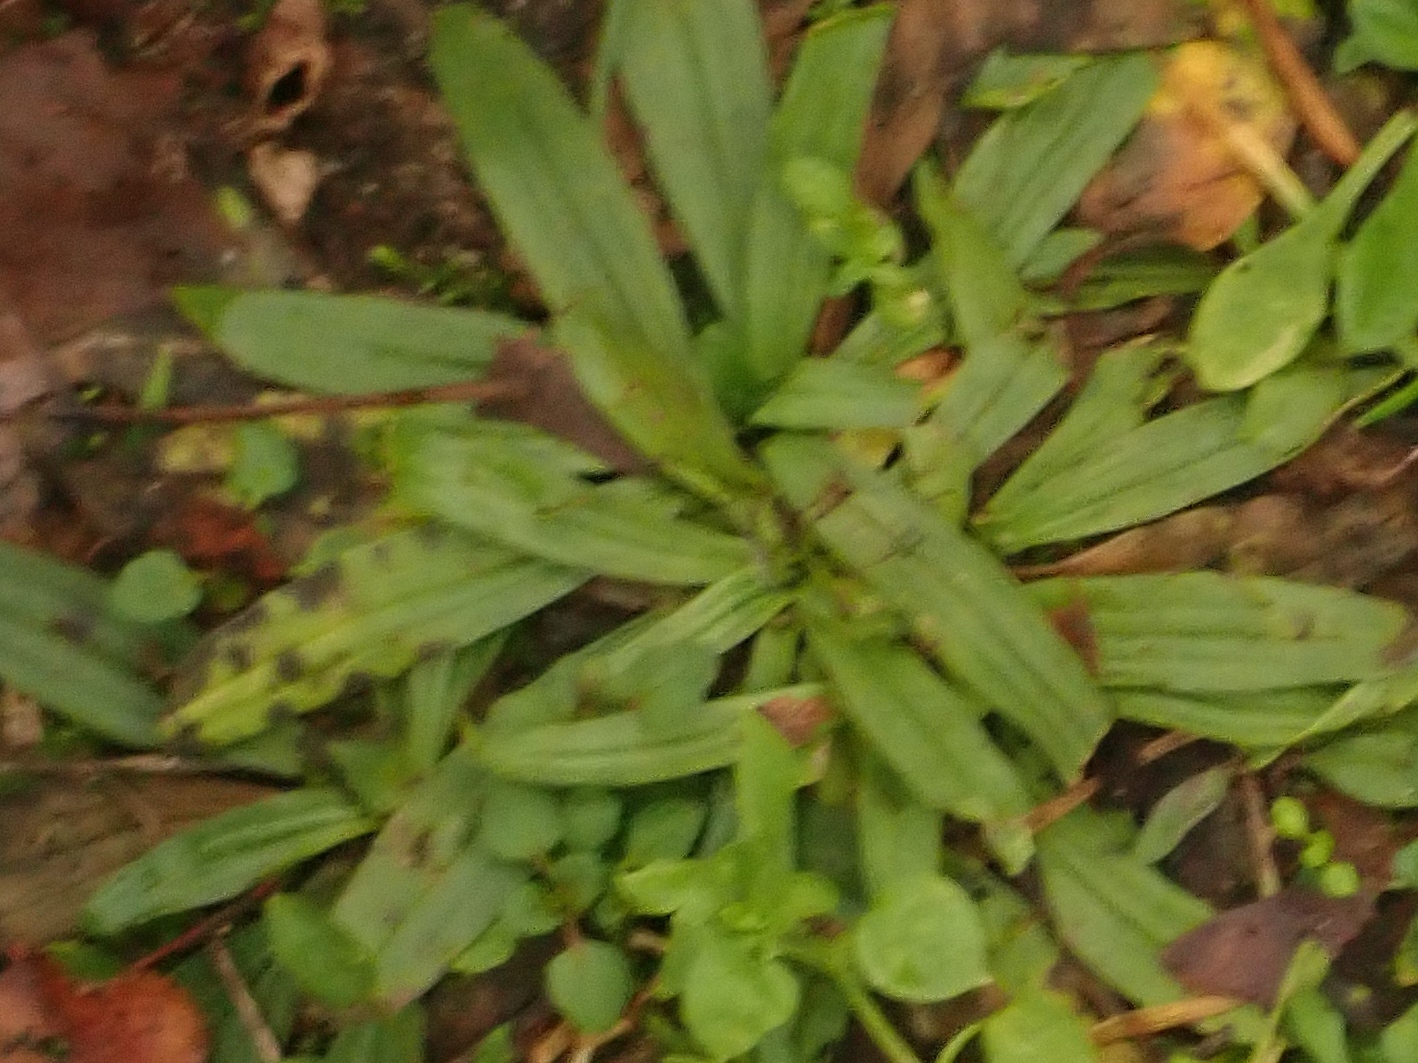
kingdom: Plantae
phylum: Tracheophyta
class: Magnoliopsida
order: Lamiales
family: Plantaginaceae
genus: Plantago
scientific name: Plantago lanceolata
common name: Ribwort plantain
